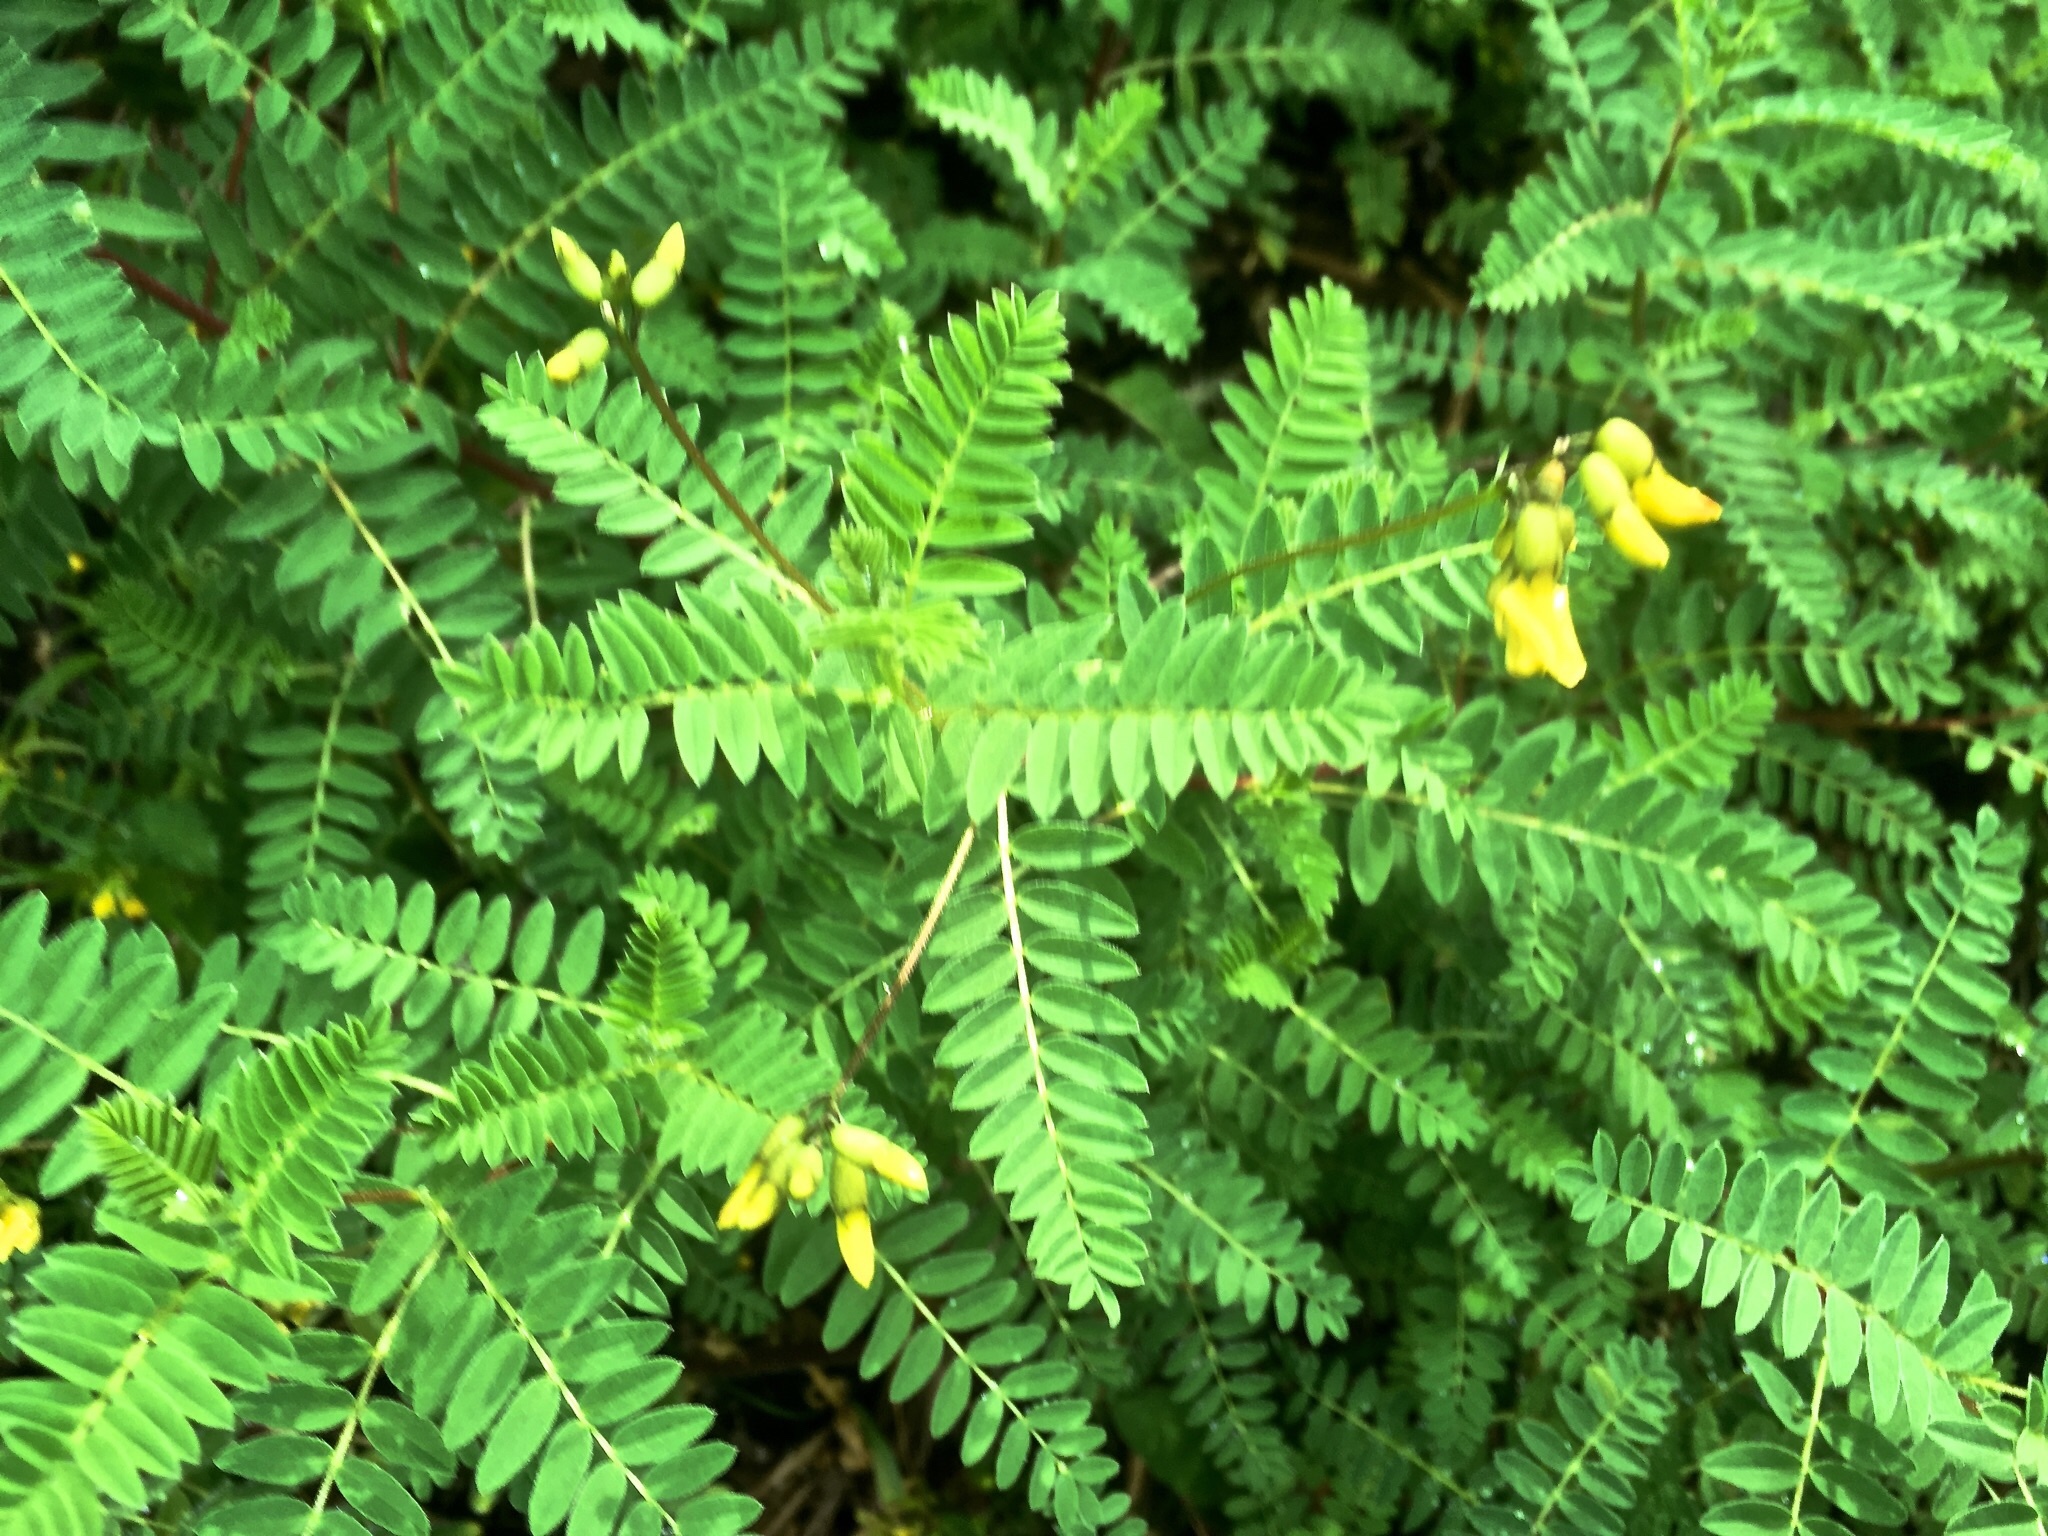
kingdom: Plantae
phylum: Tracheophyta
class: Magnoliopsida
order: Fabales
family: Fabaceae
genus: Astragalus
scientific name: Astragalus penduliflorus
